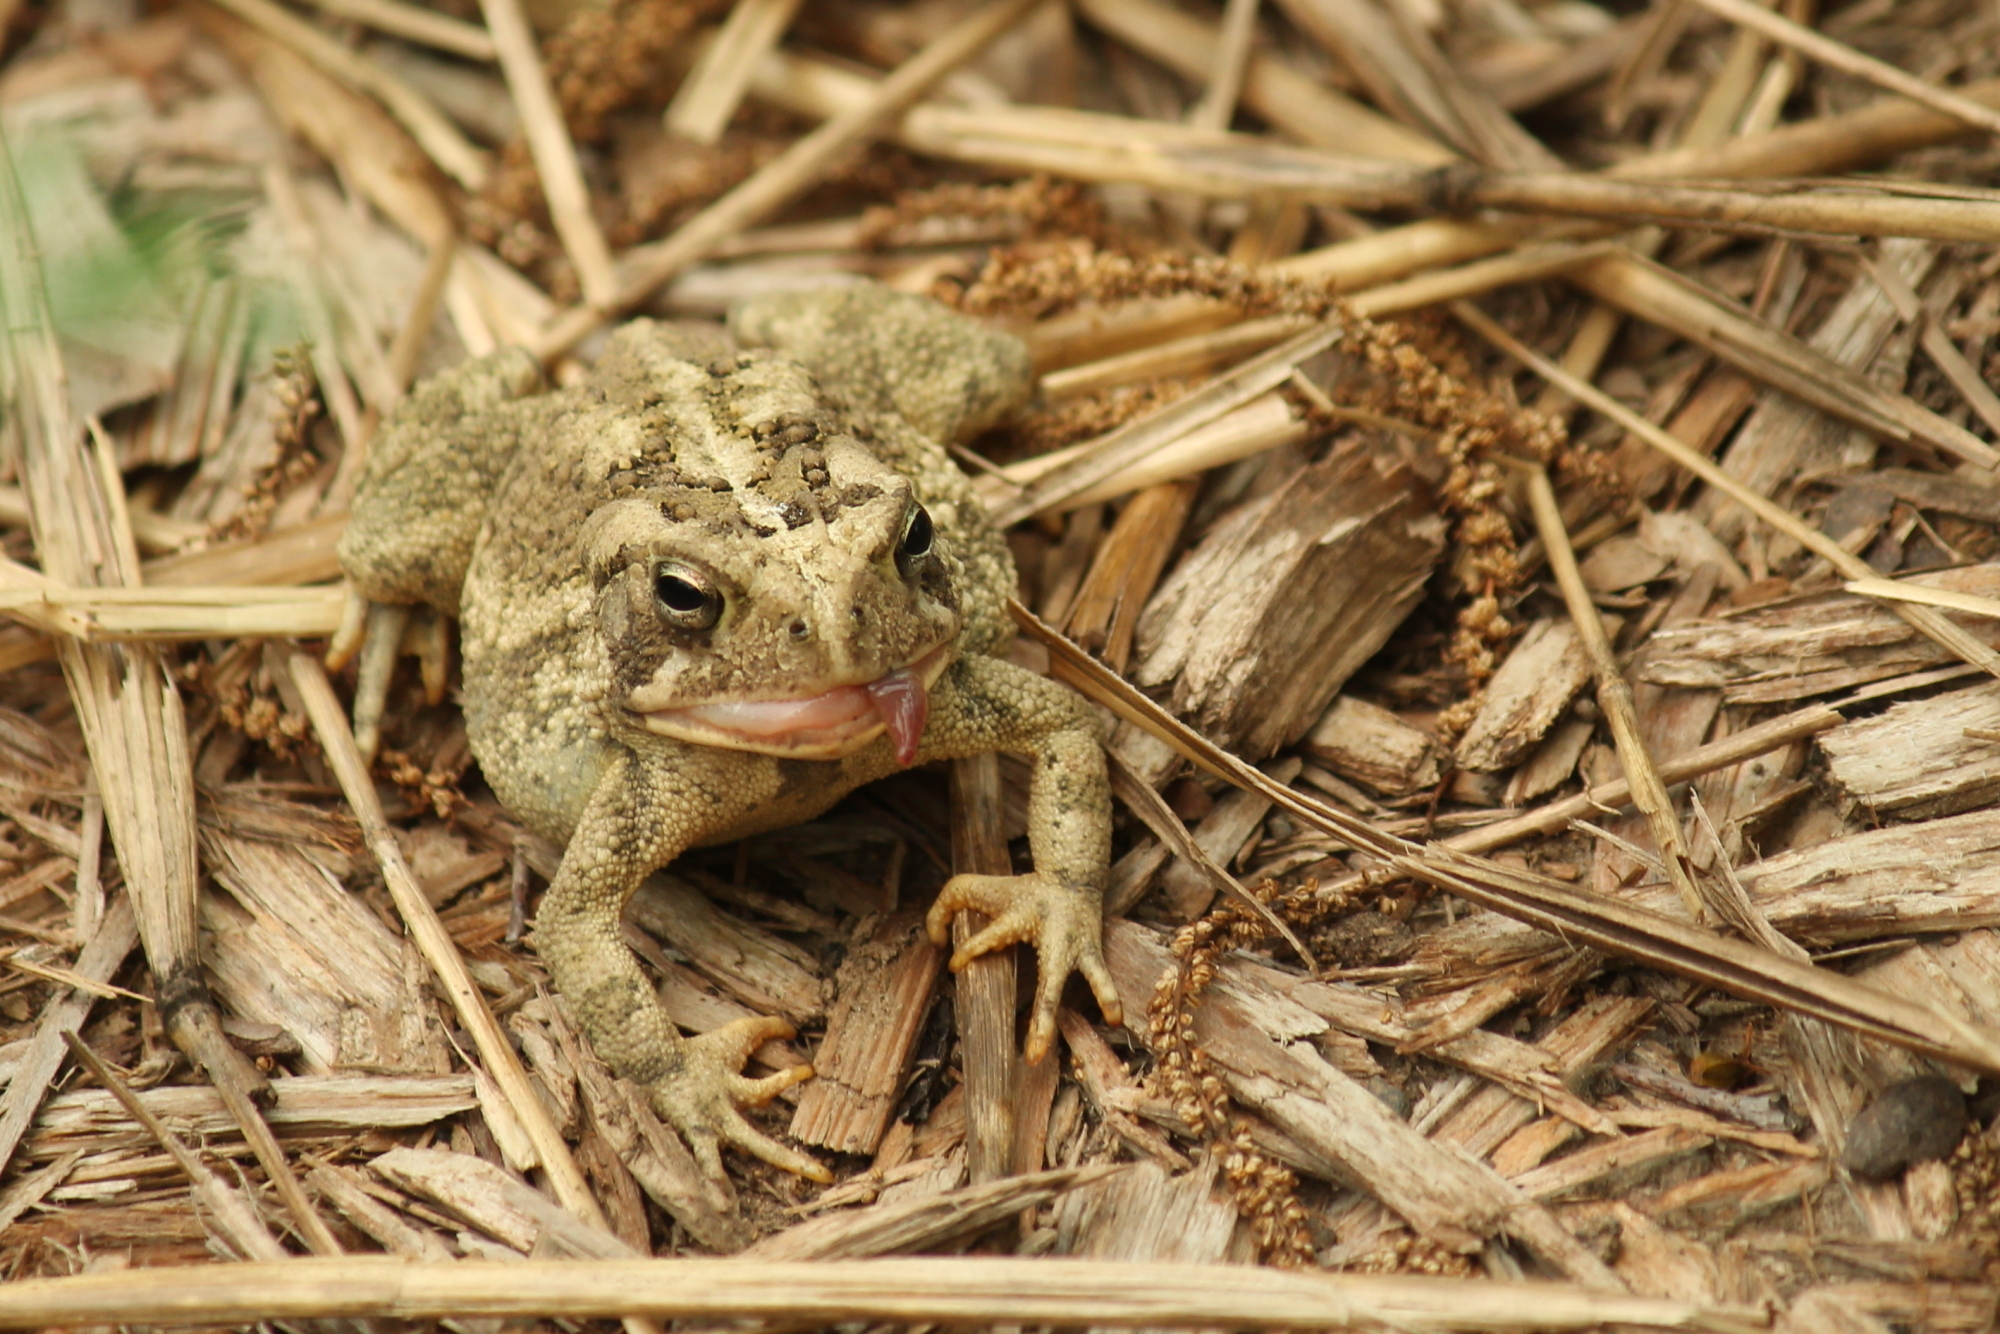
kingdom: Animalia
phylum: Chordata
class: Amphibia
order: Anura
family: Bufonidae
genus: Anaxyrus
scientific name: Anaxyrus fowleri
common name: Fowler's toad
